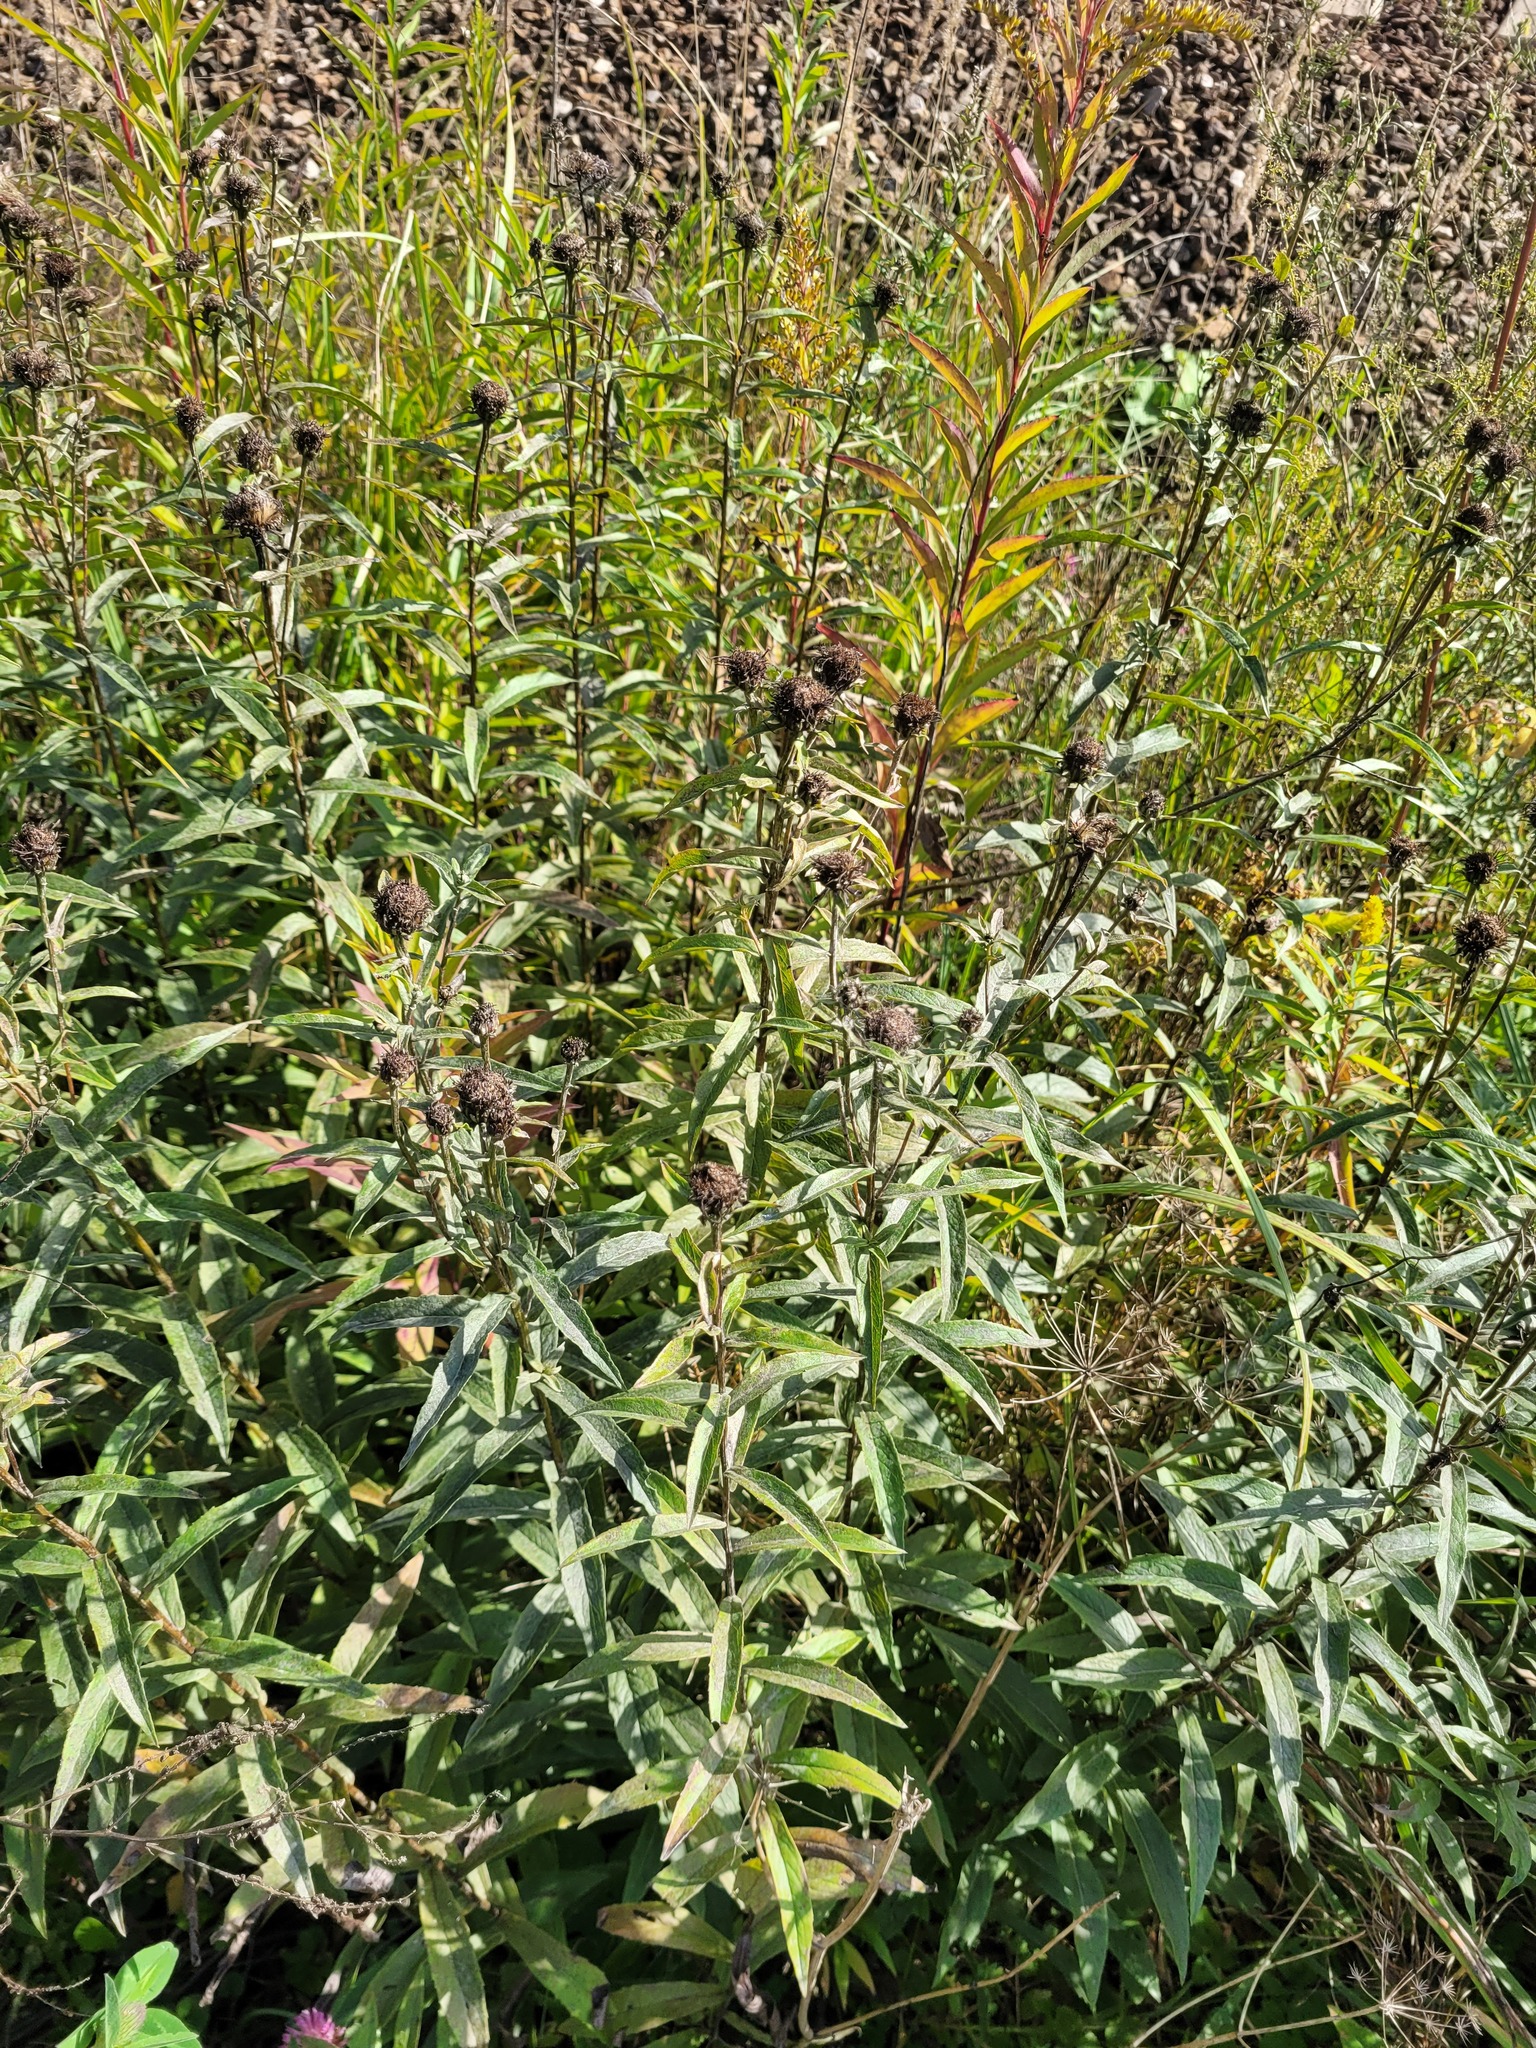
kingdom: Plantae
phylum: Tracheophyta
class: Magnoliopsida
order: Asterales
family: Asteraceae
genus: Pentanema
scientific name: Pentanema salicinum
